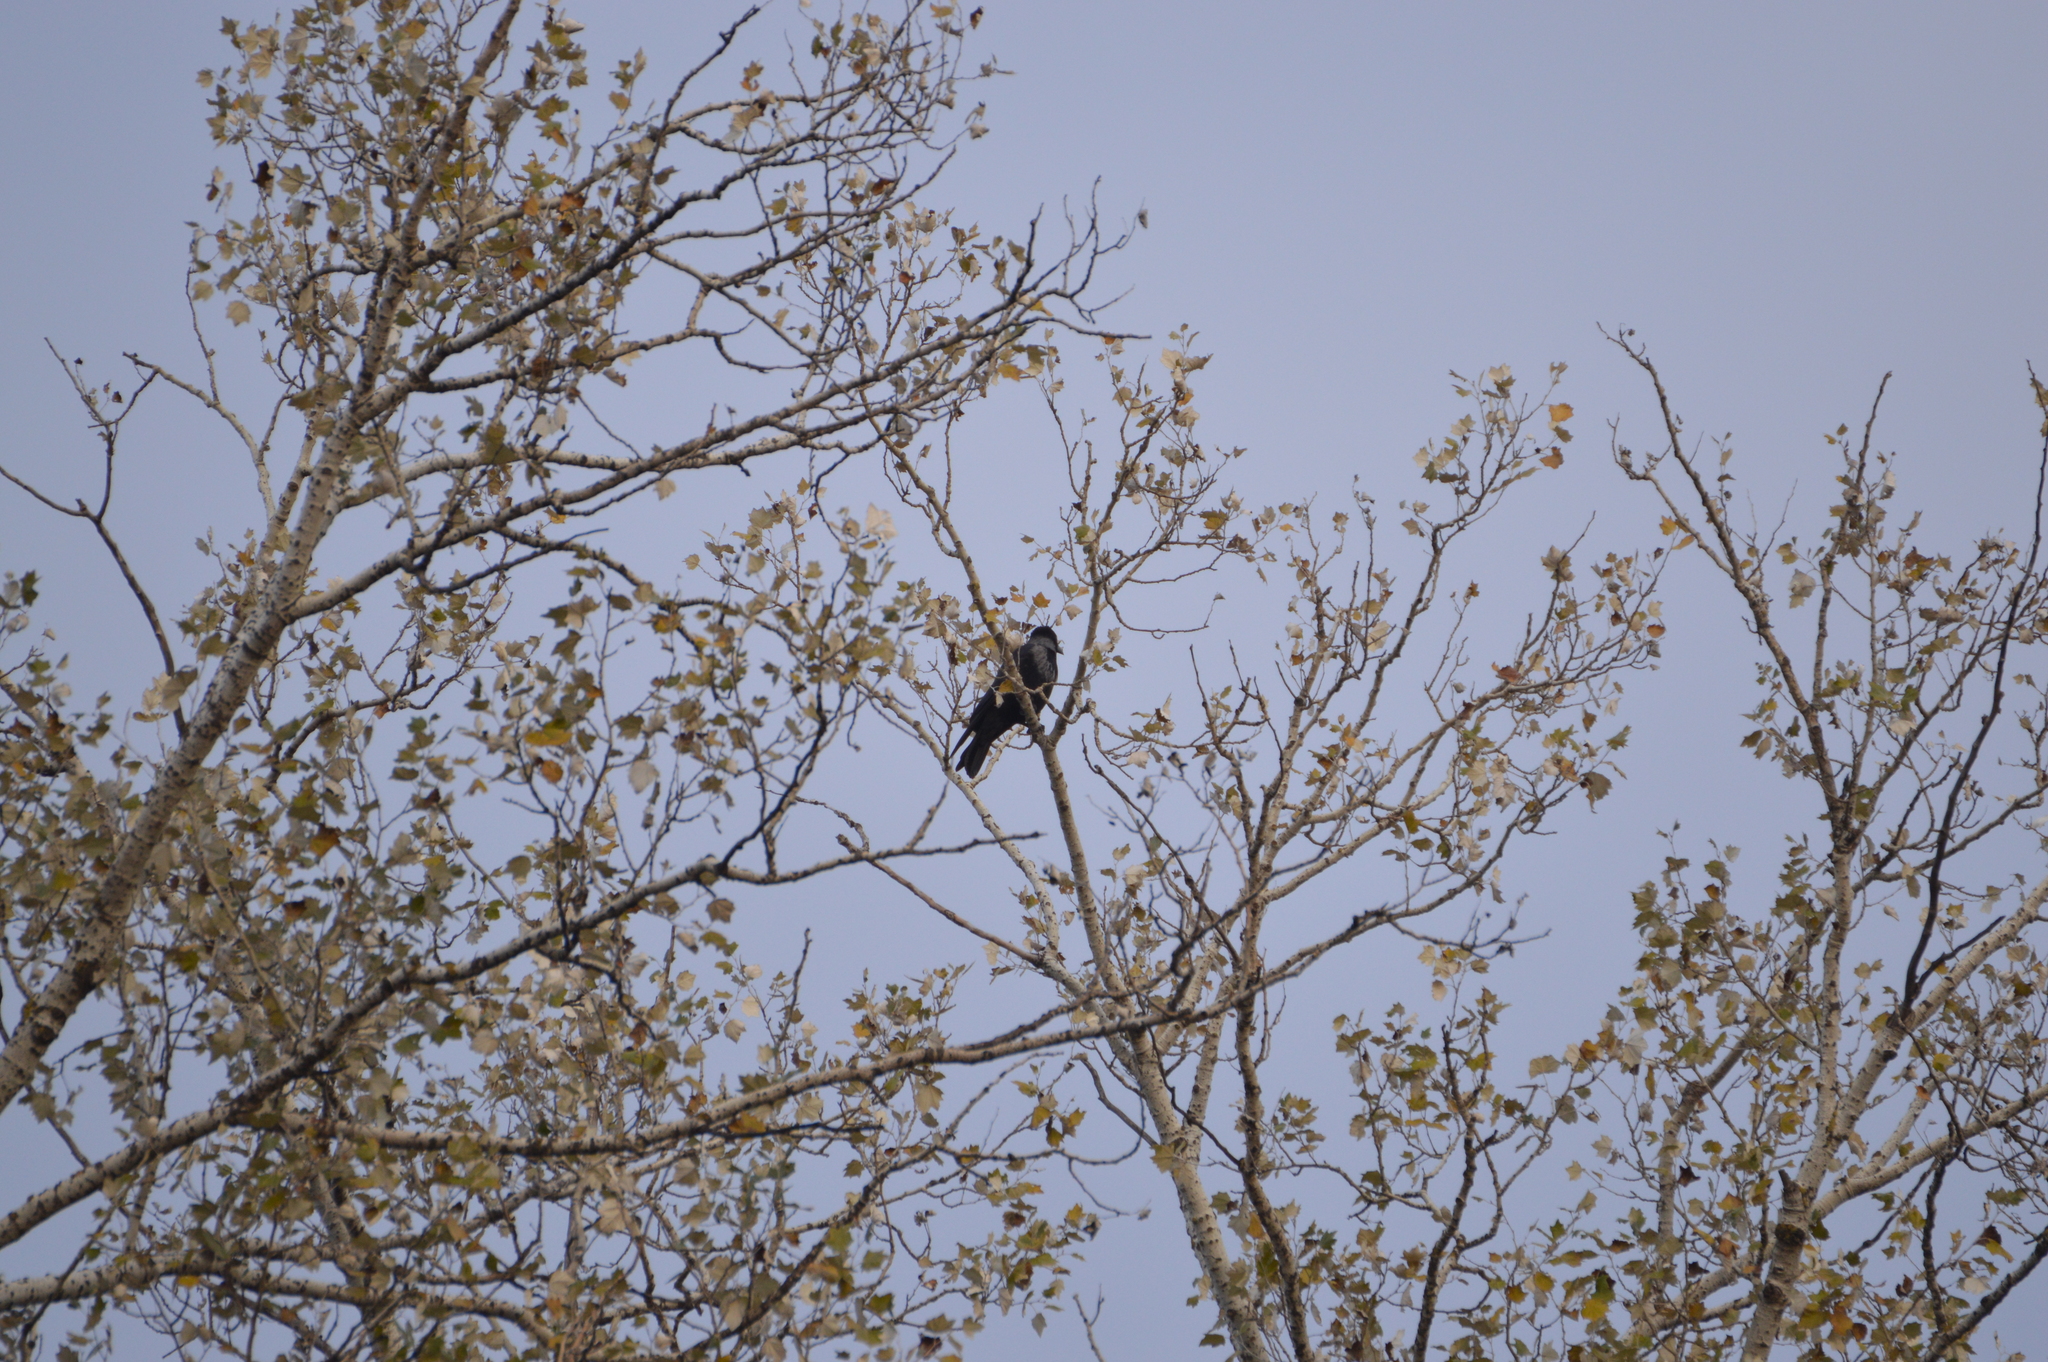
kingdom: Animalia
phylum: Chordata
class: Aves
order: Passeriformes
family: Corvidae
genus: Corvus
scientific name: Corvus
